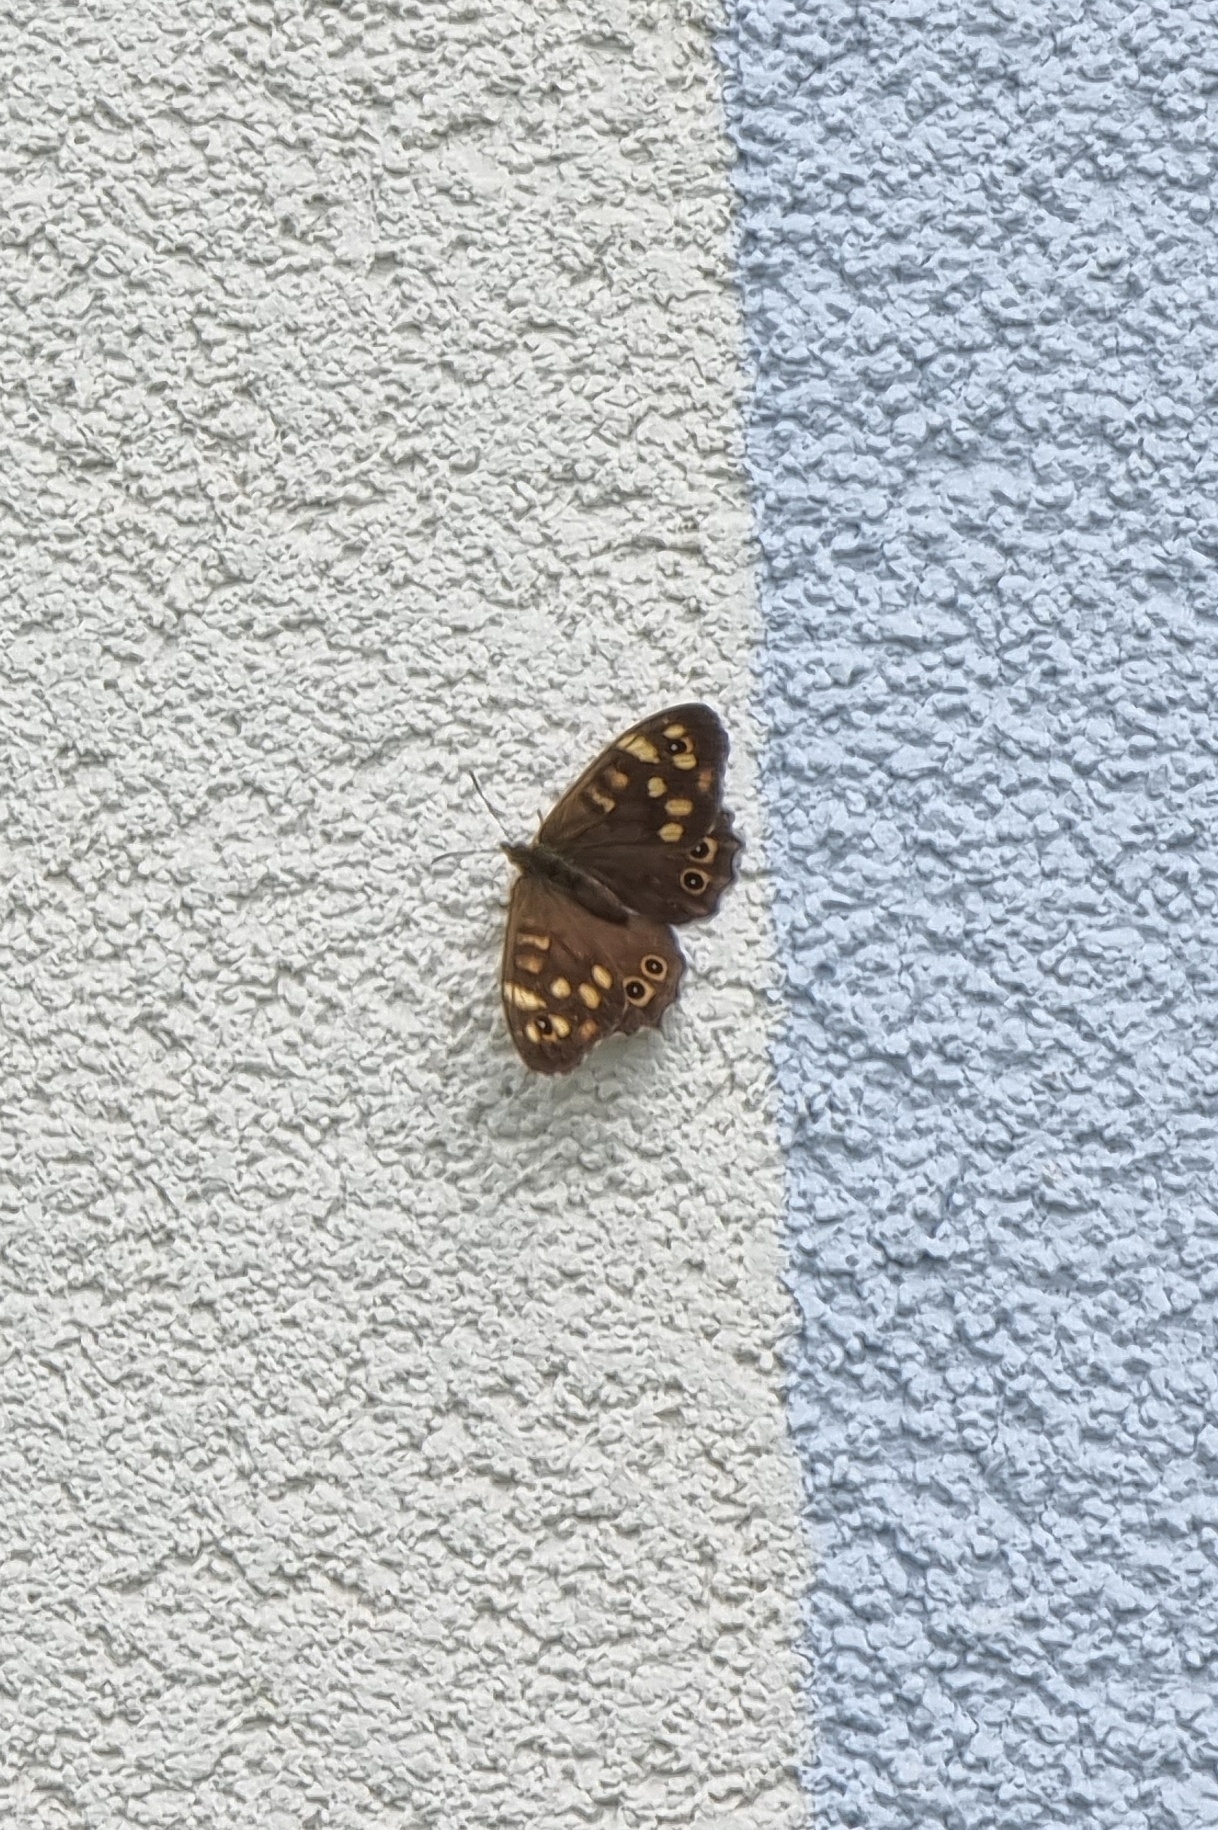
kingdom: Animalia
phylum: Arthropoda
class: Insecta
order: Lepidoptera
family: Nymphalidae
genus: Pararge
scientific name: Pararge aegeria
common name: Speckled wood
